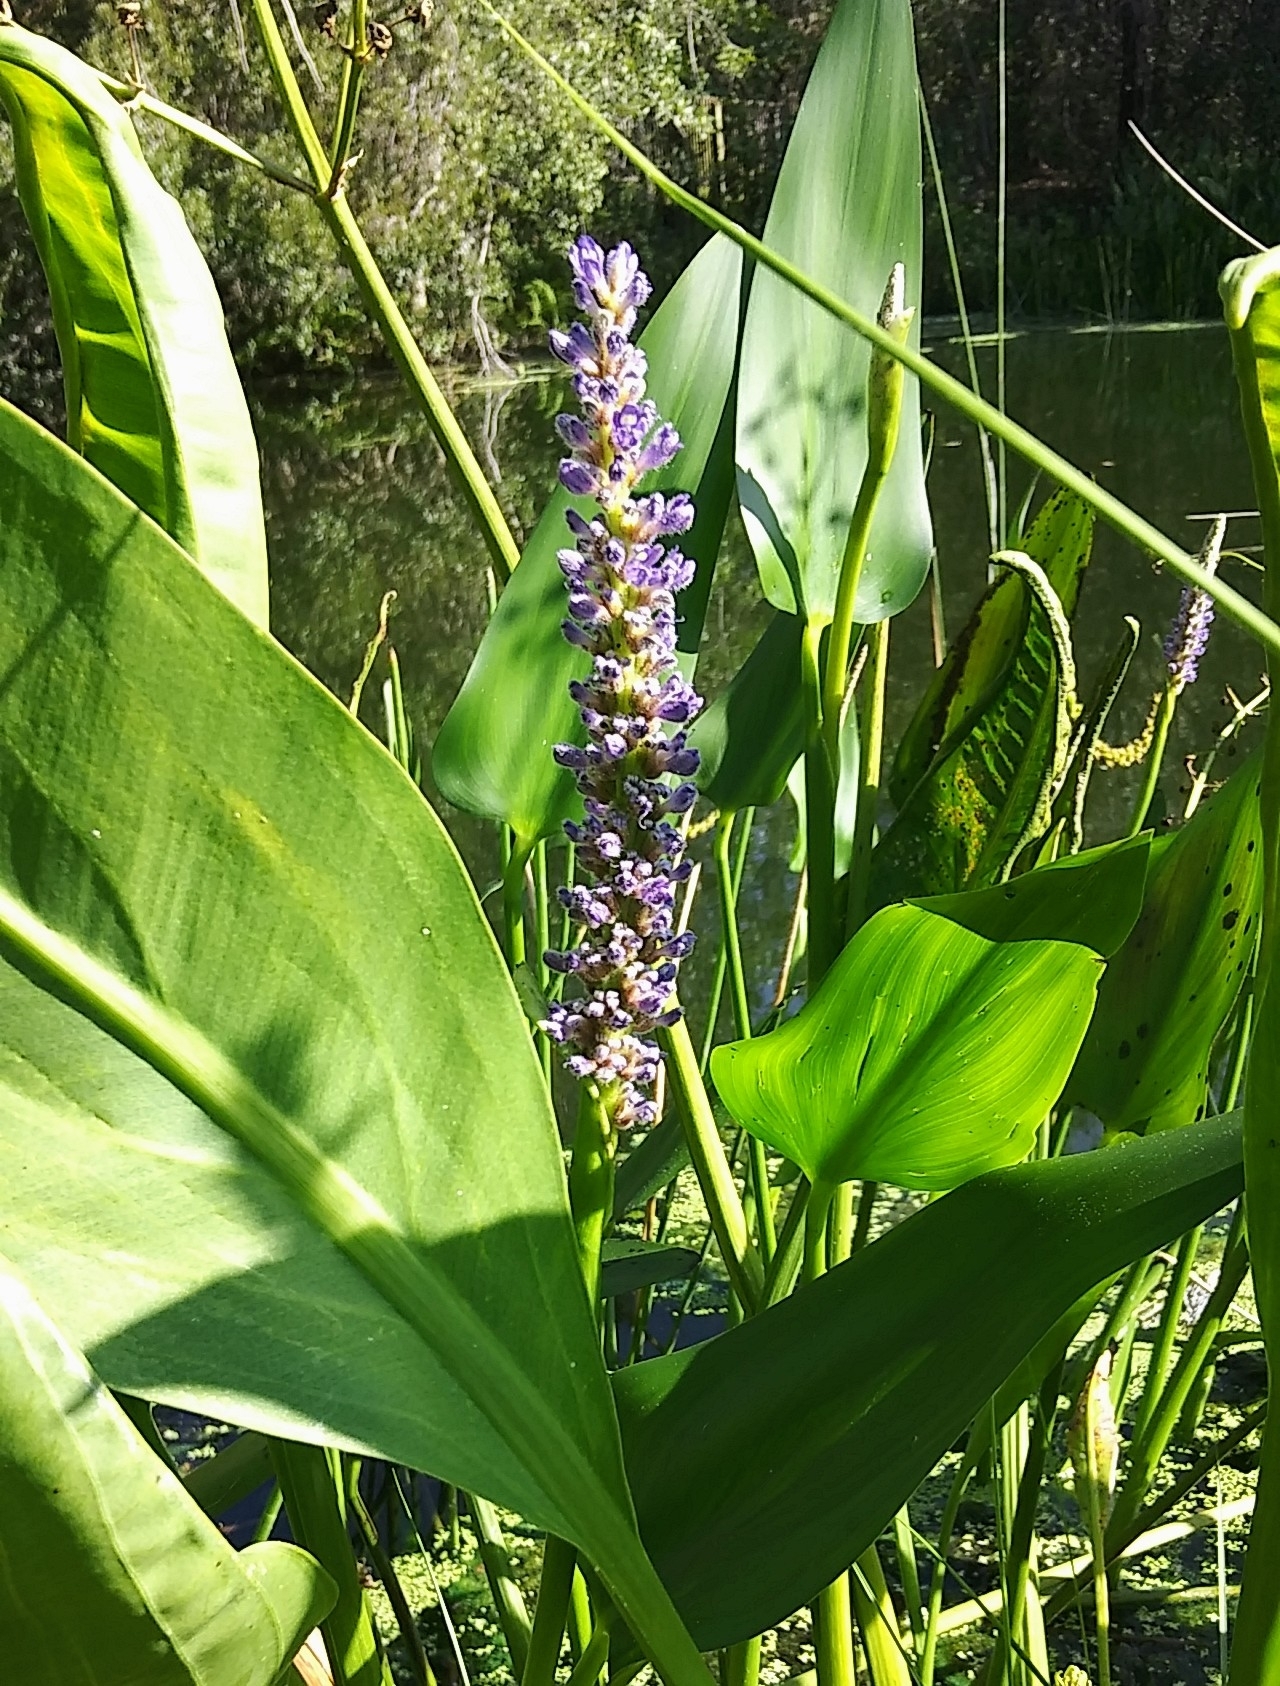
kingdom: Plantae
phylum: Tracheophyta
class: Liliopsida
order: Commelinales
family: Pontederiaceae
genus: Pontederia
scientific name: Pontederia cordata
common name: Pickerelweed
